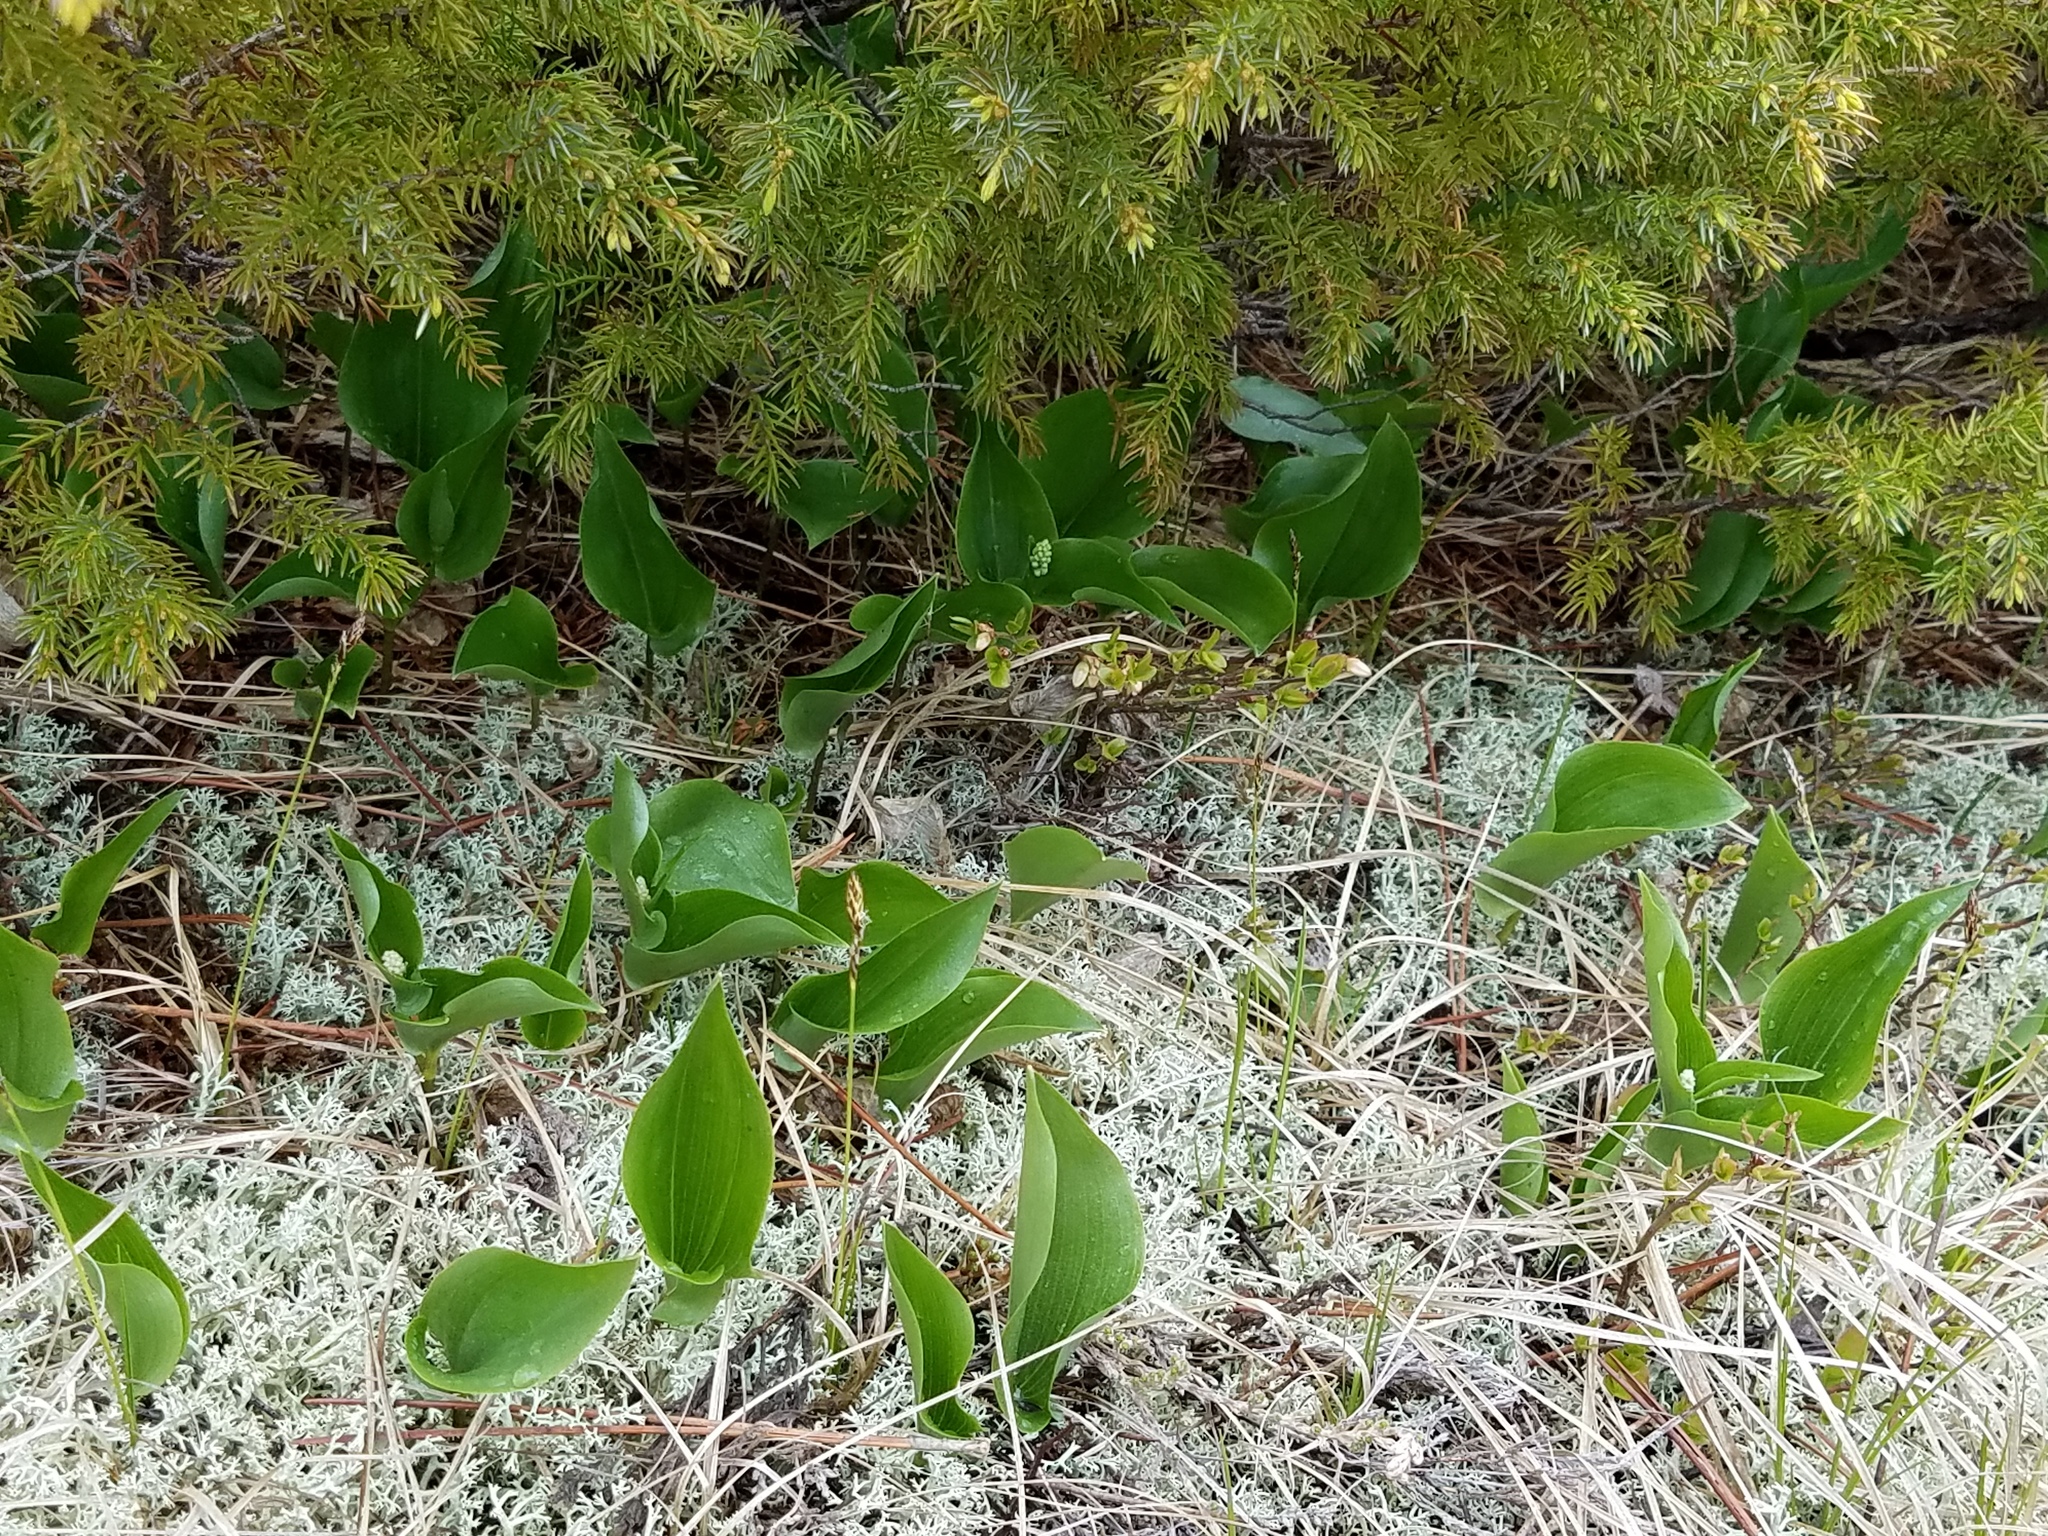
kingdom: Plantae
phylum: Tracheophyta
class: Liliopsida
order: Asparagales
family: Asparagaceae
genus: Maianthemum
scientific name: Maianthemum canadense
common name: False lily-of-the-valley
